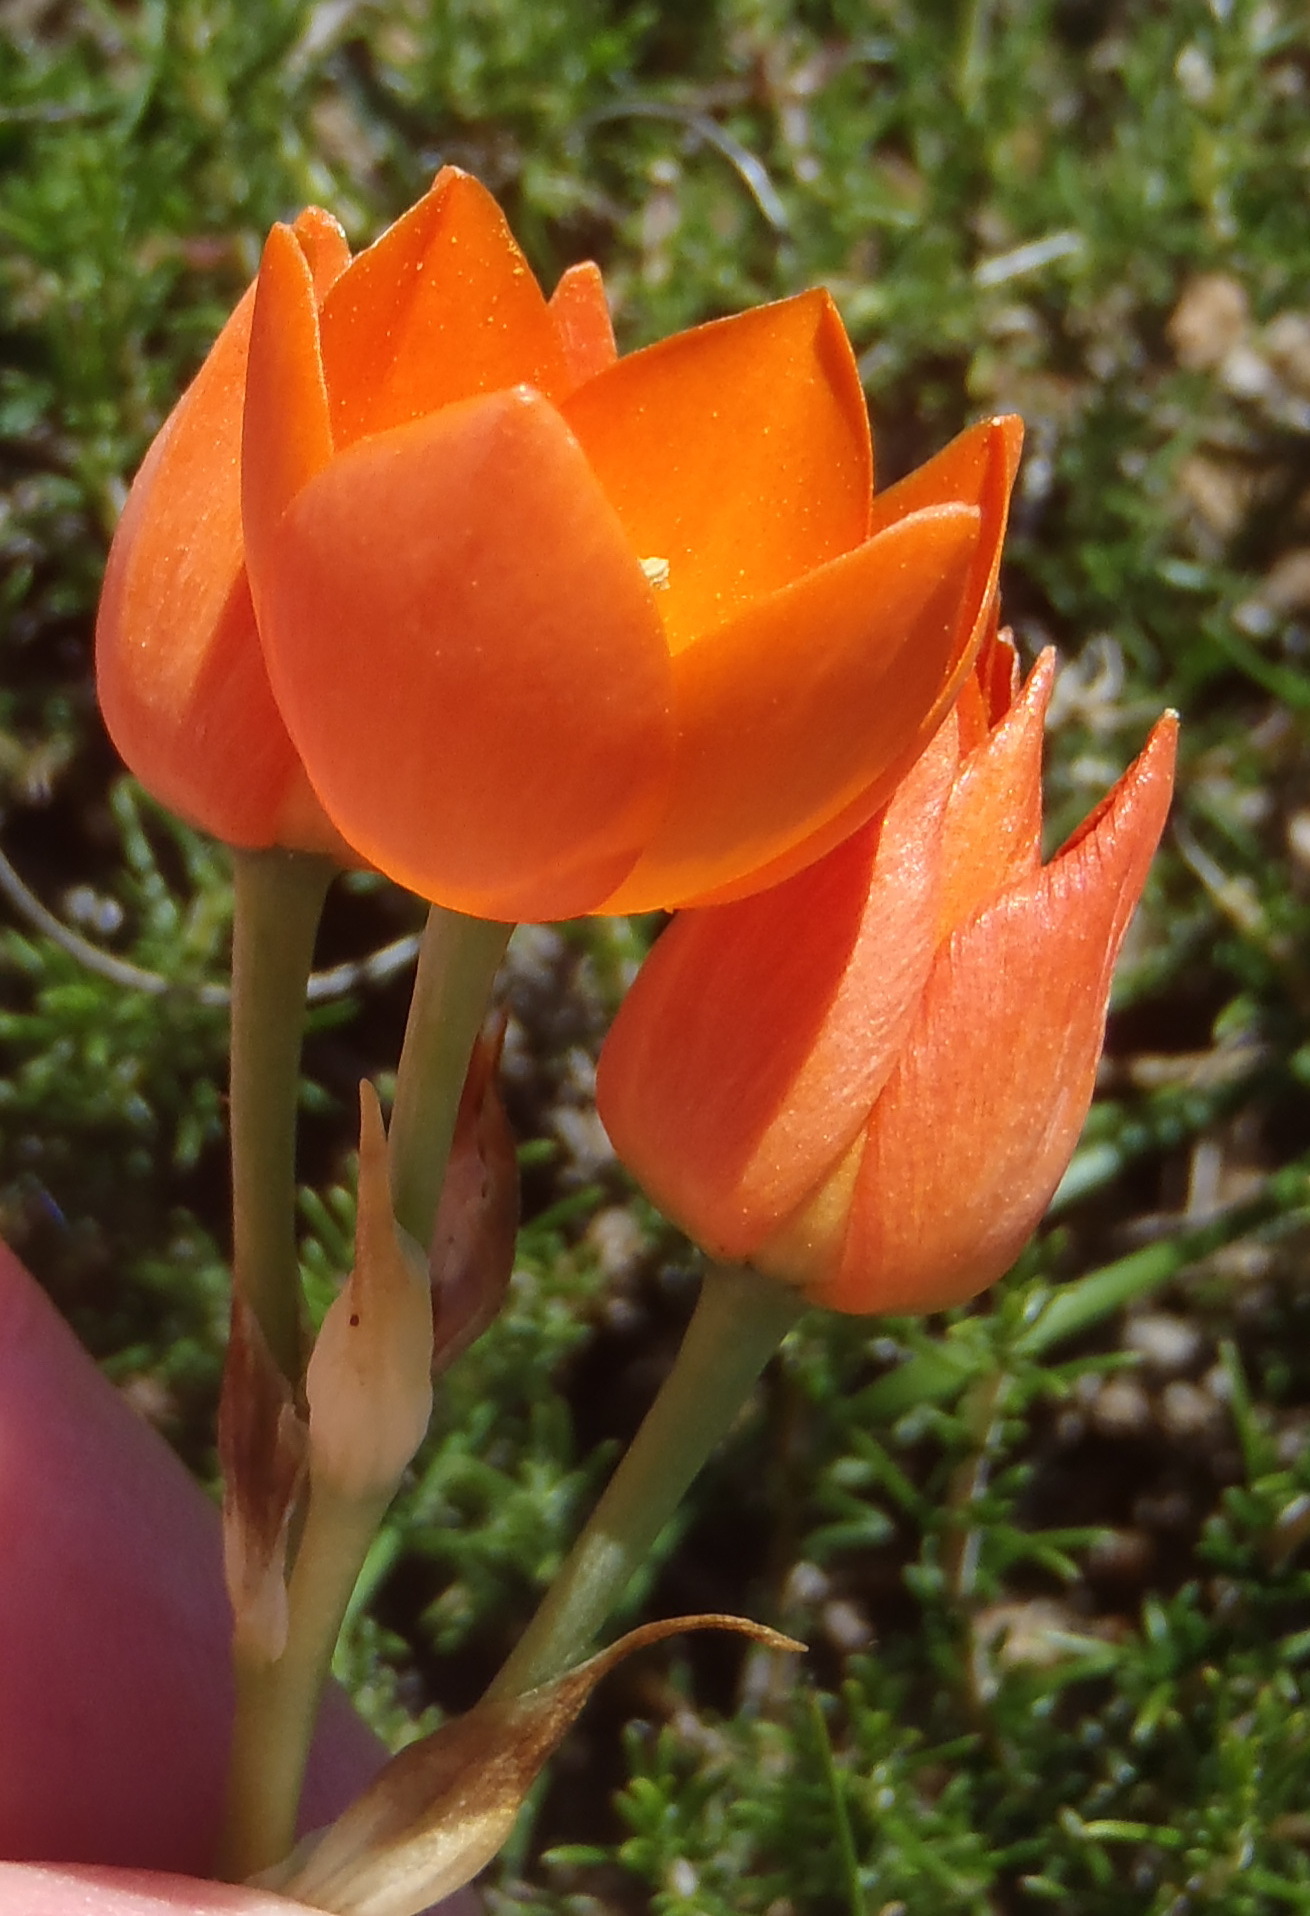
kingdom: Plantae
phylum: Tracheophyta
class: Liliopsida
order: Asparagales
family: Asparagaceae
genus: Ornithogalum
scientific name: Ornithogalum dubium
